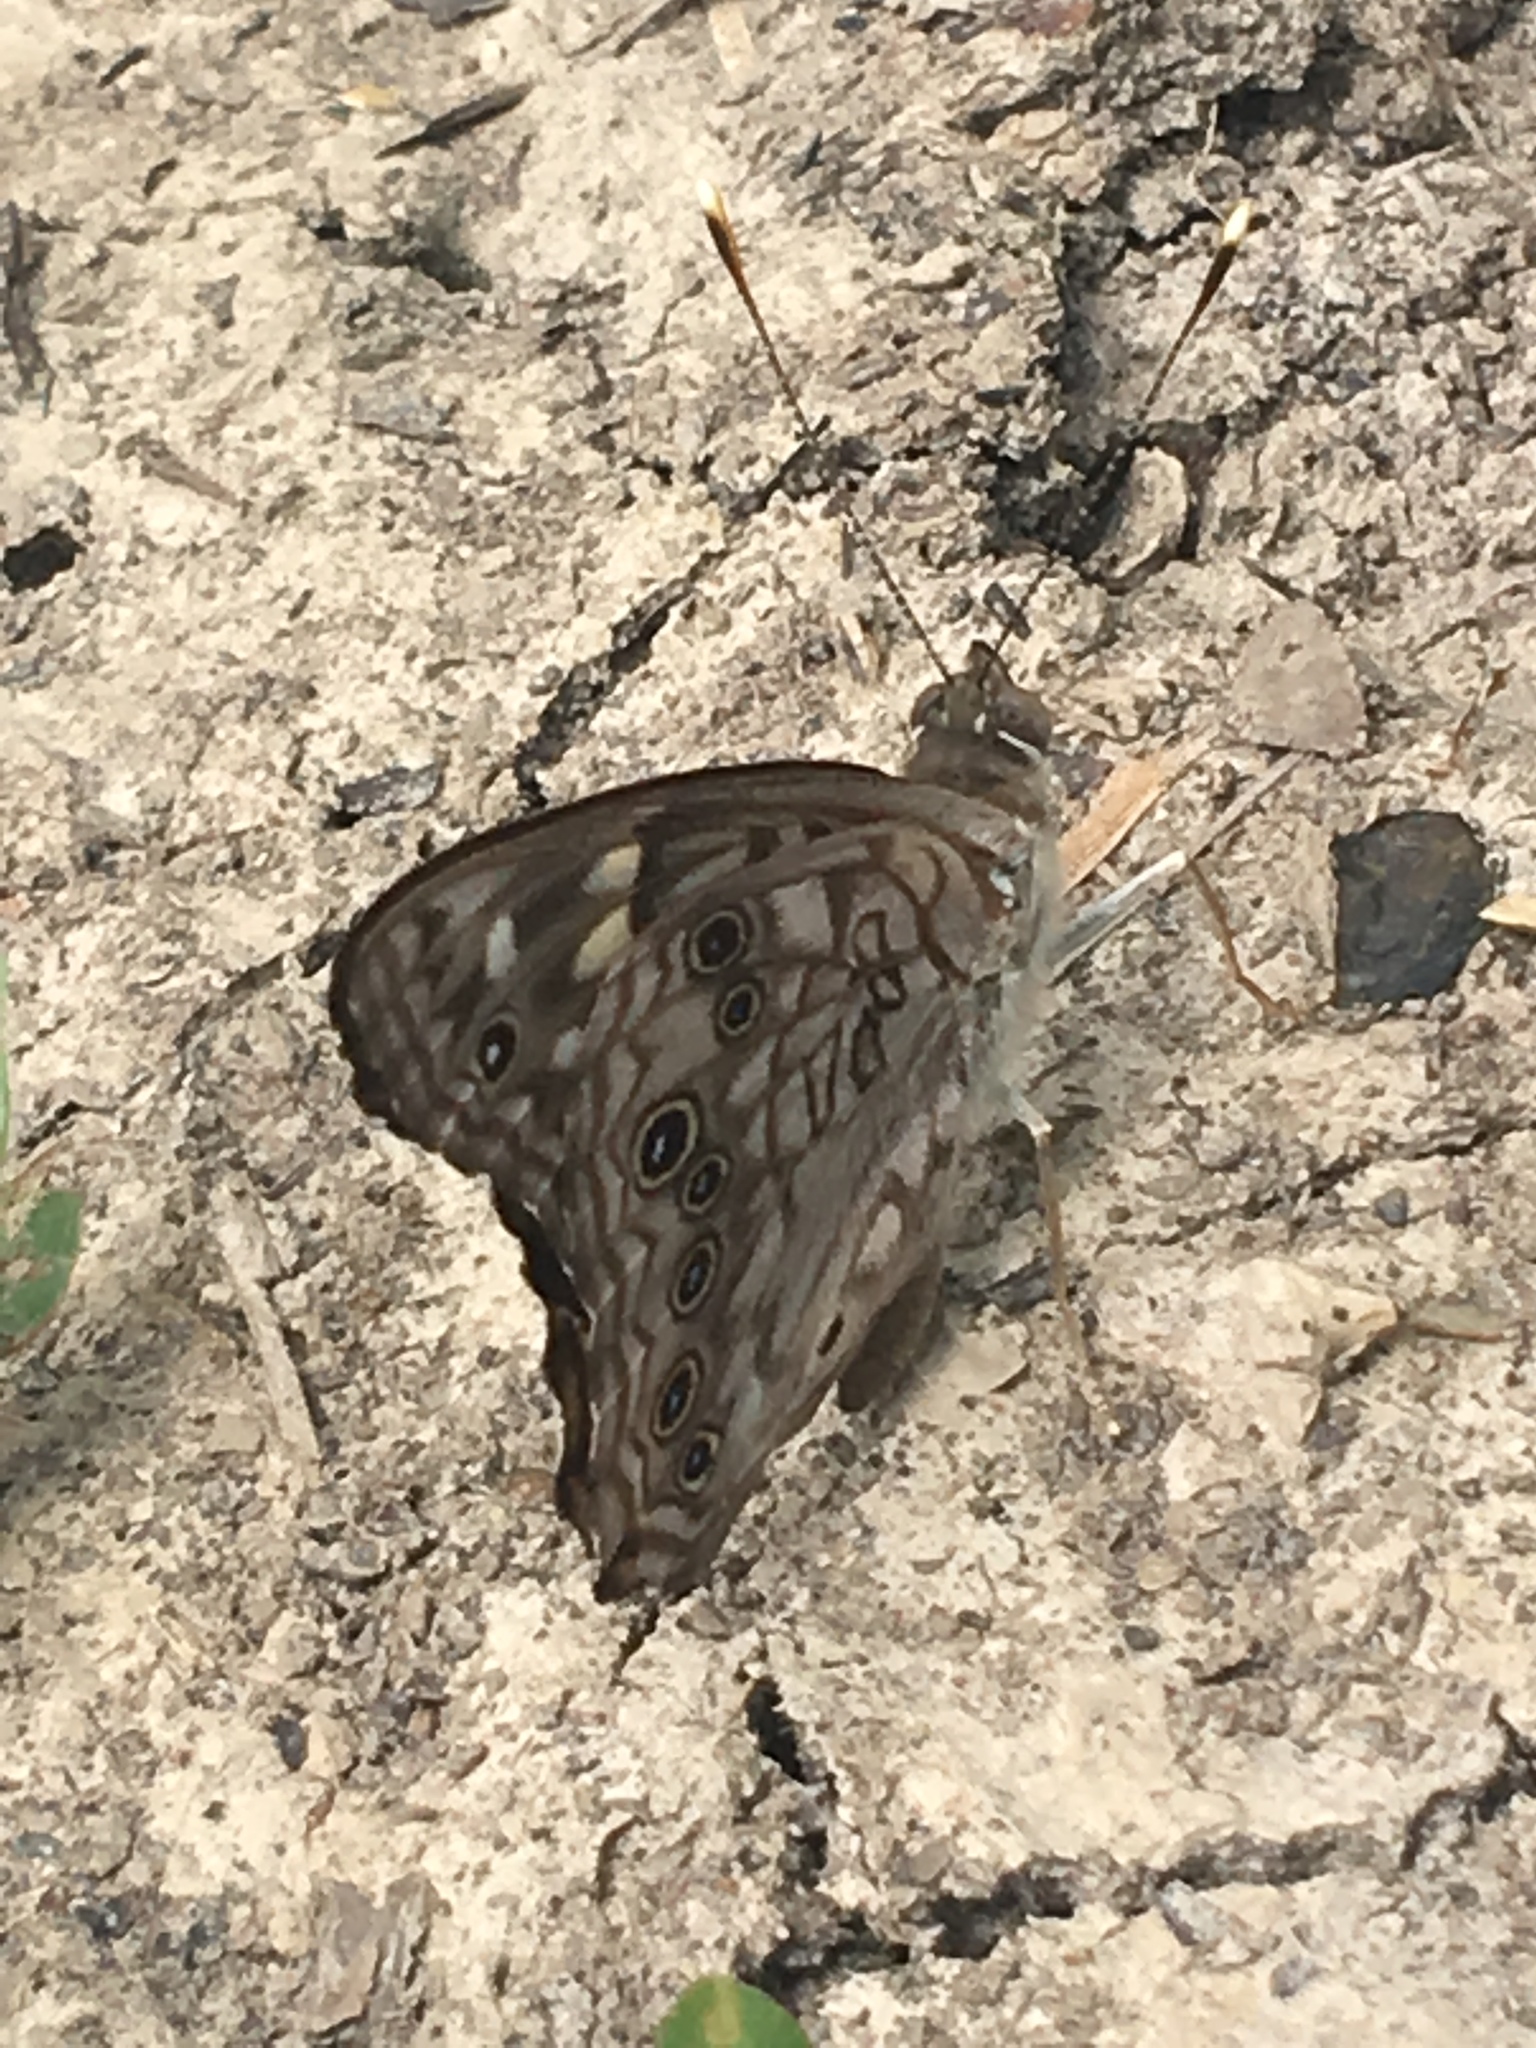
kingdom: Animalia
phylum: Arthropoda
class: Insecta
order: Lepidoptera
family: Nymphalidae
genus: Asterocampa
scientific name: Asterocampa celtis
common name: Hackberry emperor
